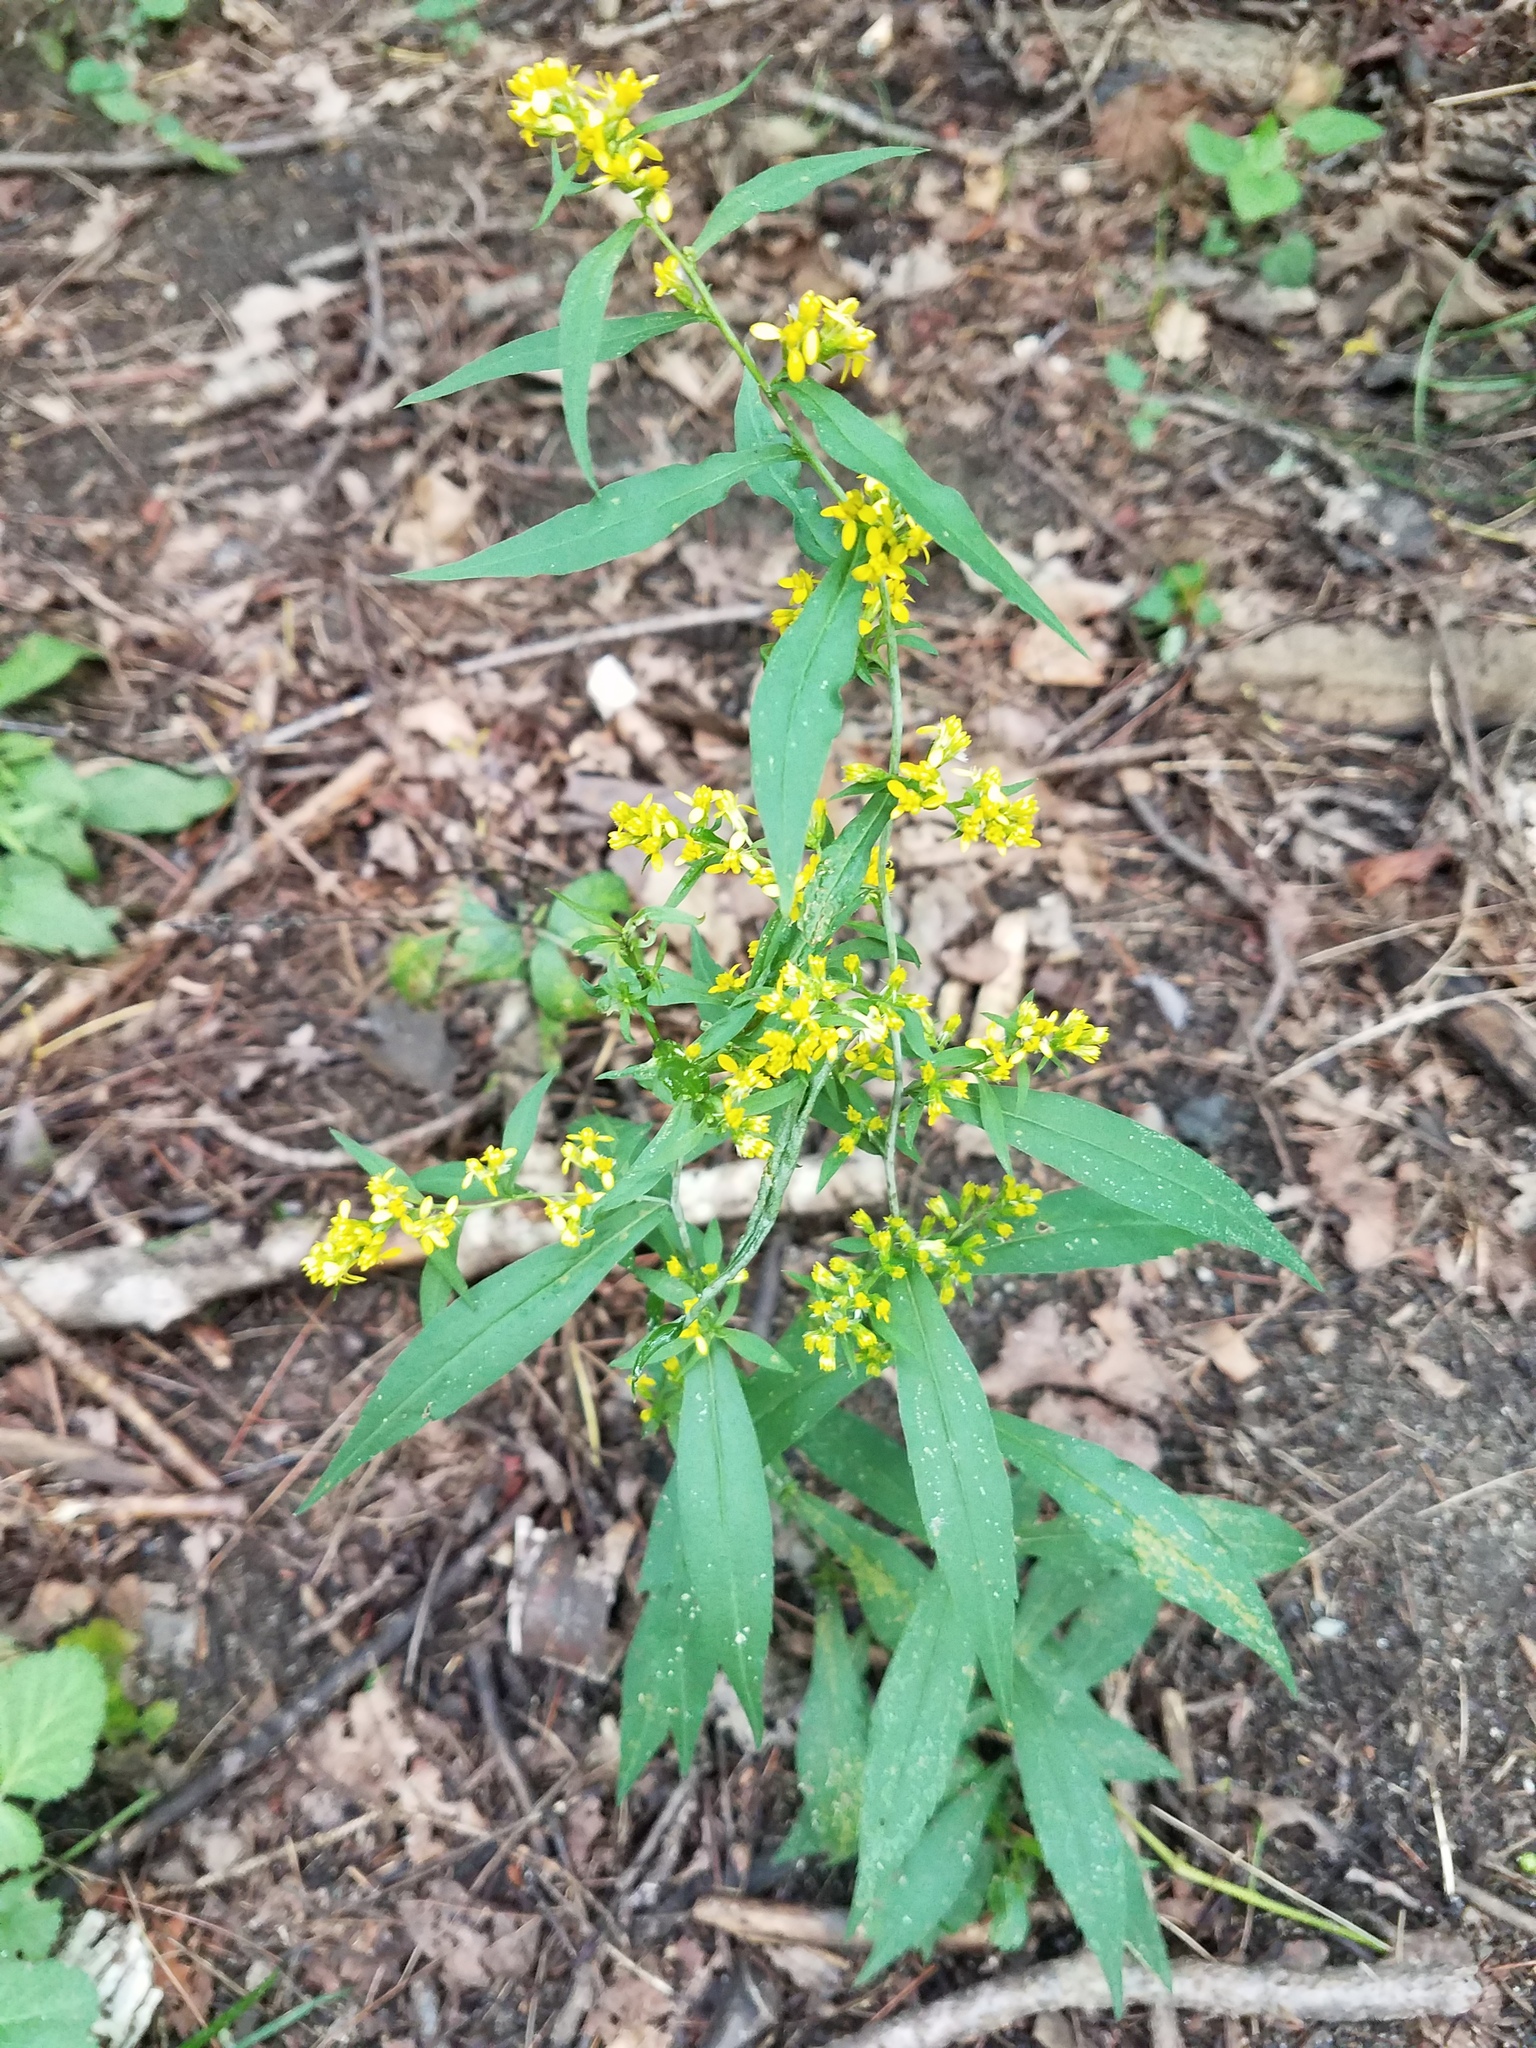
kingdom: Plantae
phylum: Tracheophyta
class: Magnoliopsida
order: Asterales
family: Asteraceae
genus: Solidago
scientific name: Solidago caesia
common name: Woodland goldenrod
